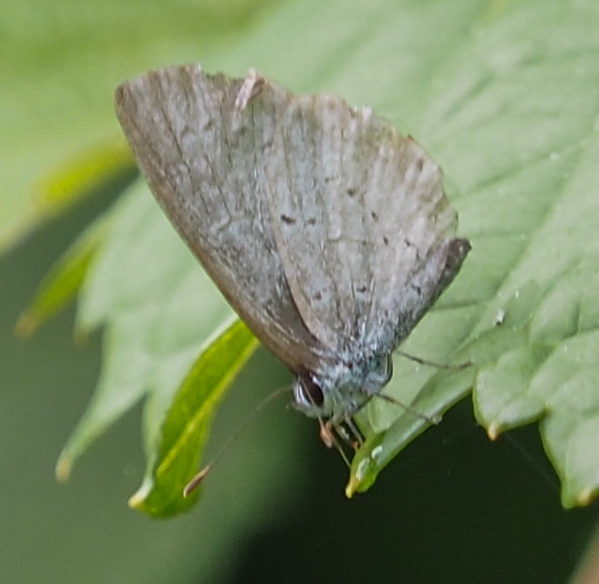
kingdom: Animalia
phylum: Arthropoda
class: Insecta
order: Lepidoptera
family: Lycaenidae
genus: Cyaniris
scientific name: Cyaniris neglecta
